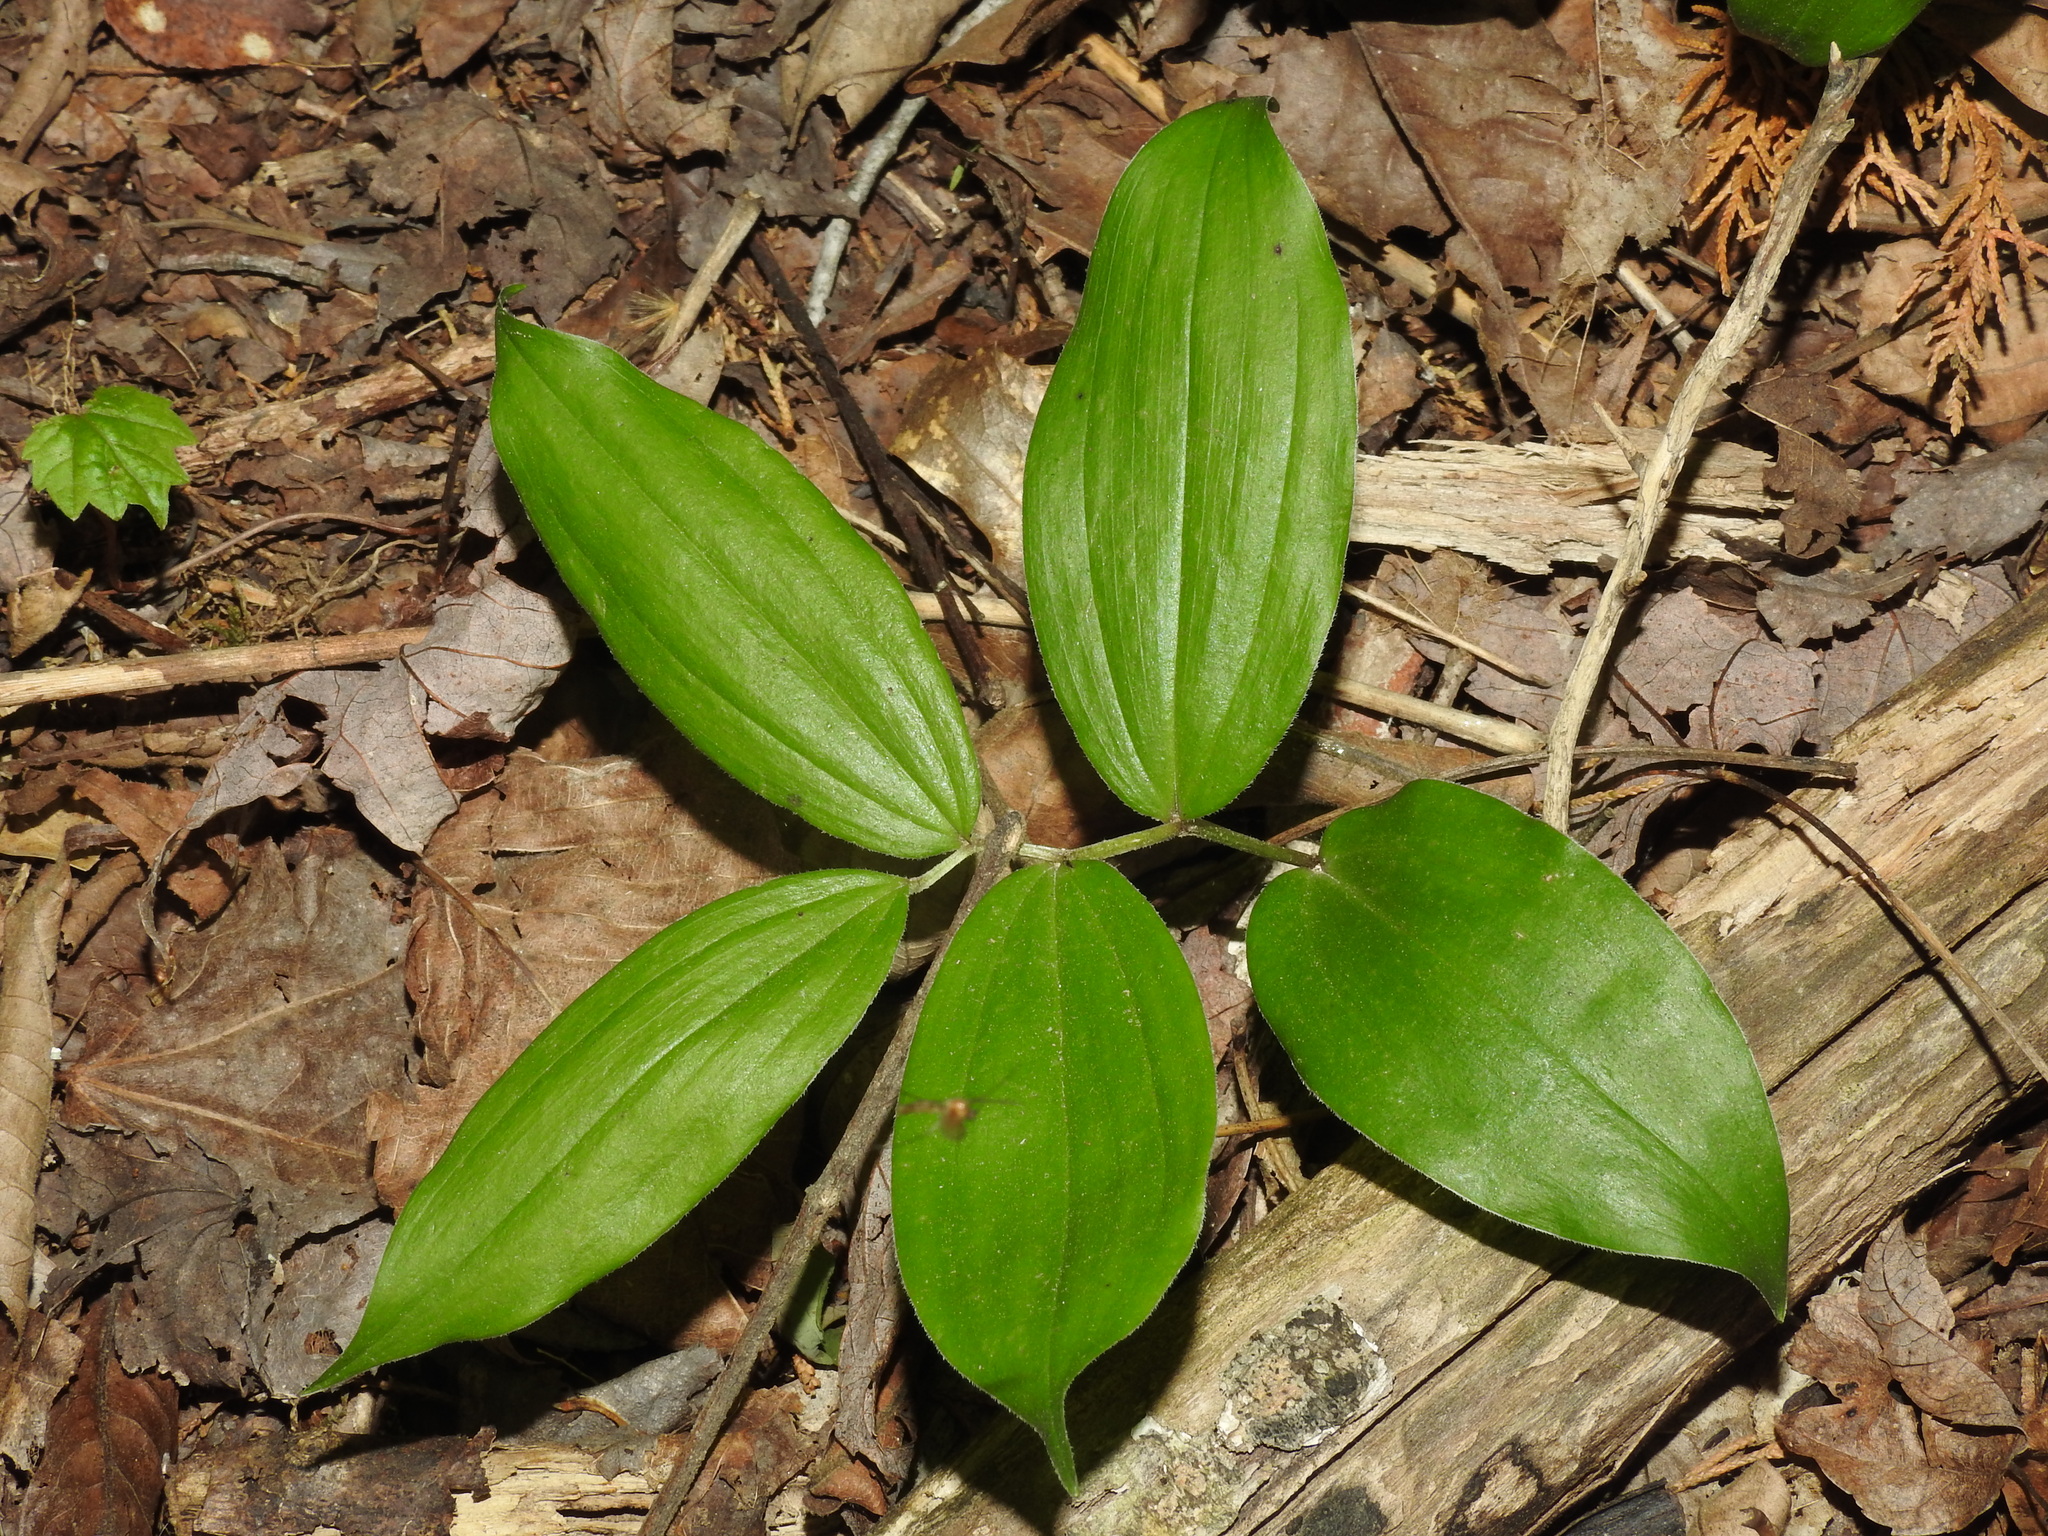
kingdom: Plantae
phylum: Tracheophyta
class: Liliopsida
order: Asparagales
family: Asparagaceae
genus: Maianthemum
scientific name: Maianthemum racemosum
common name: False spikenard
